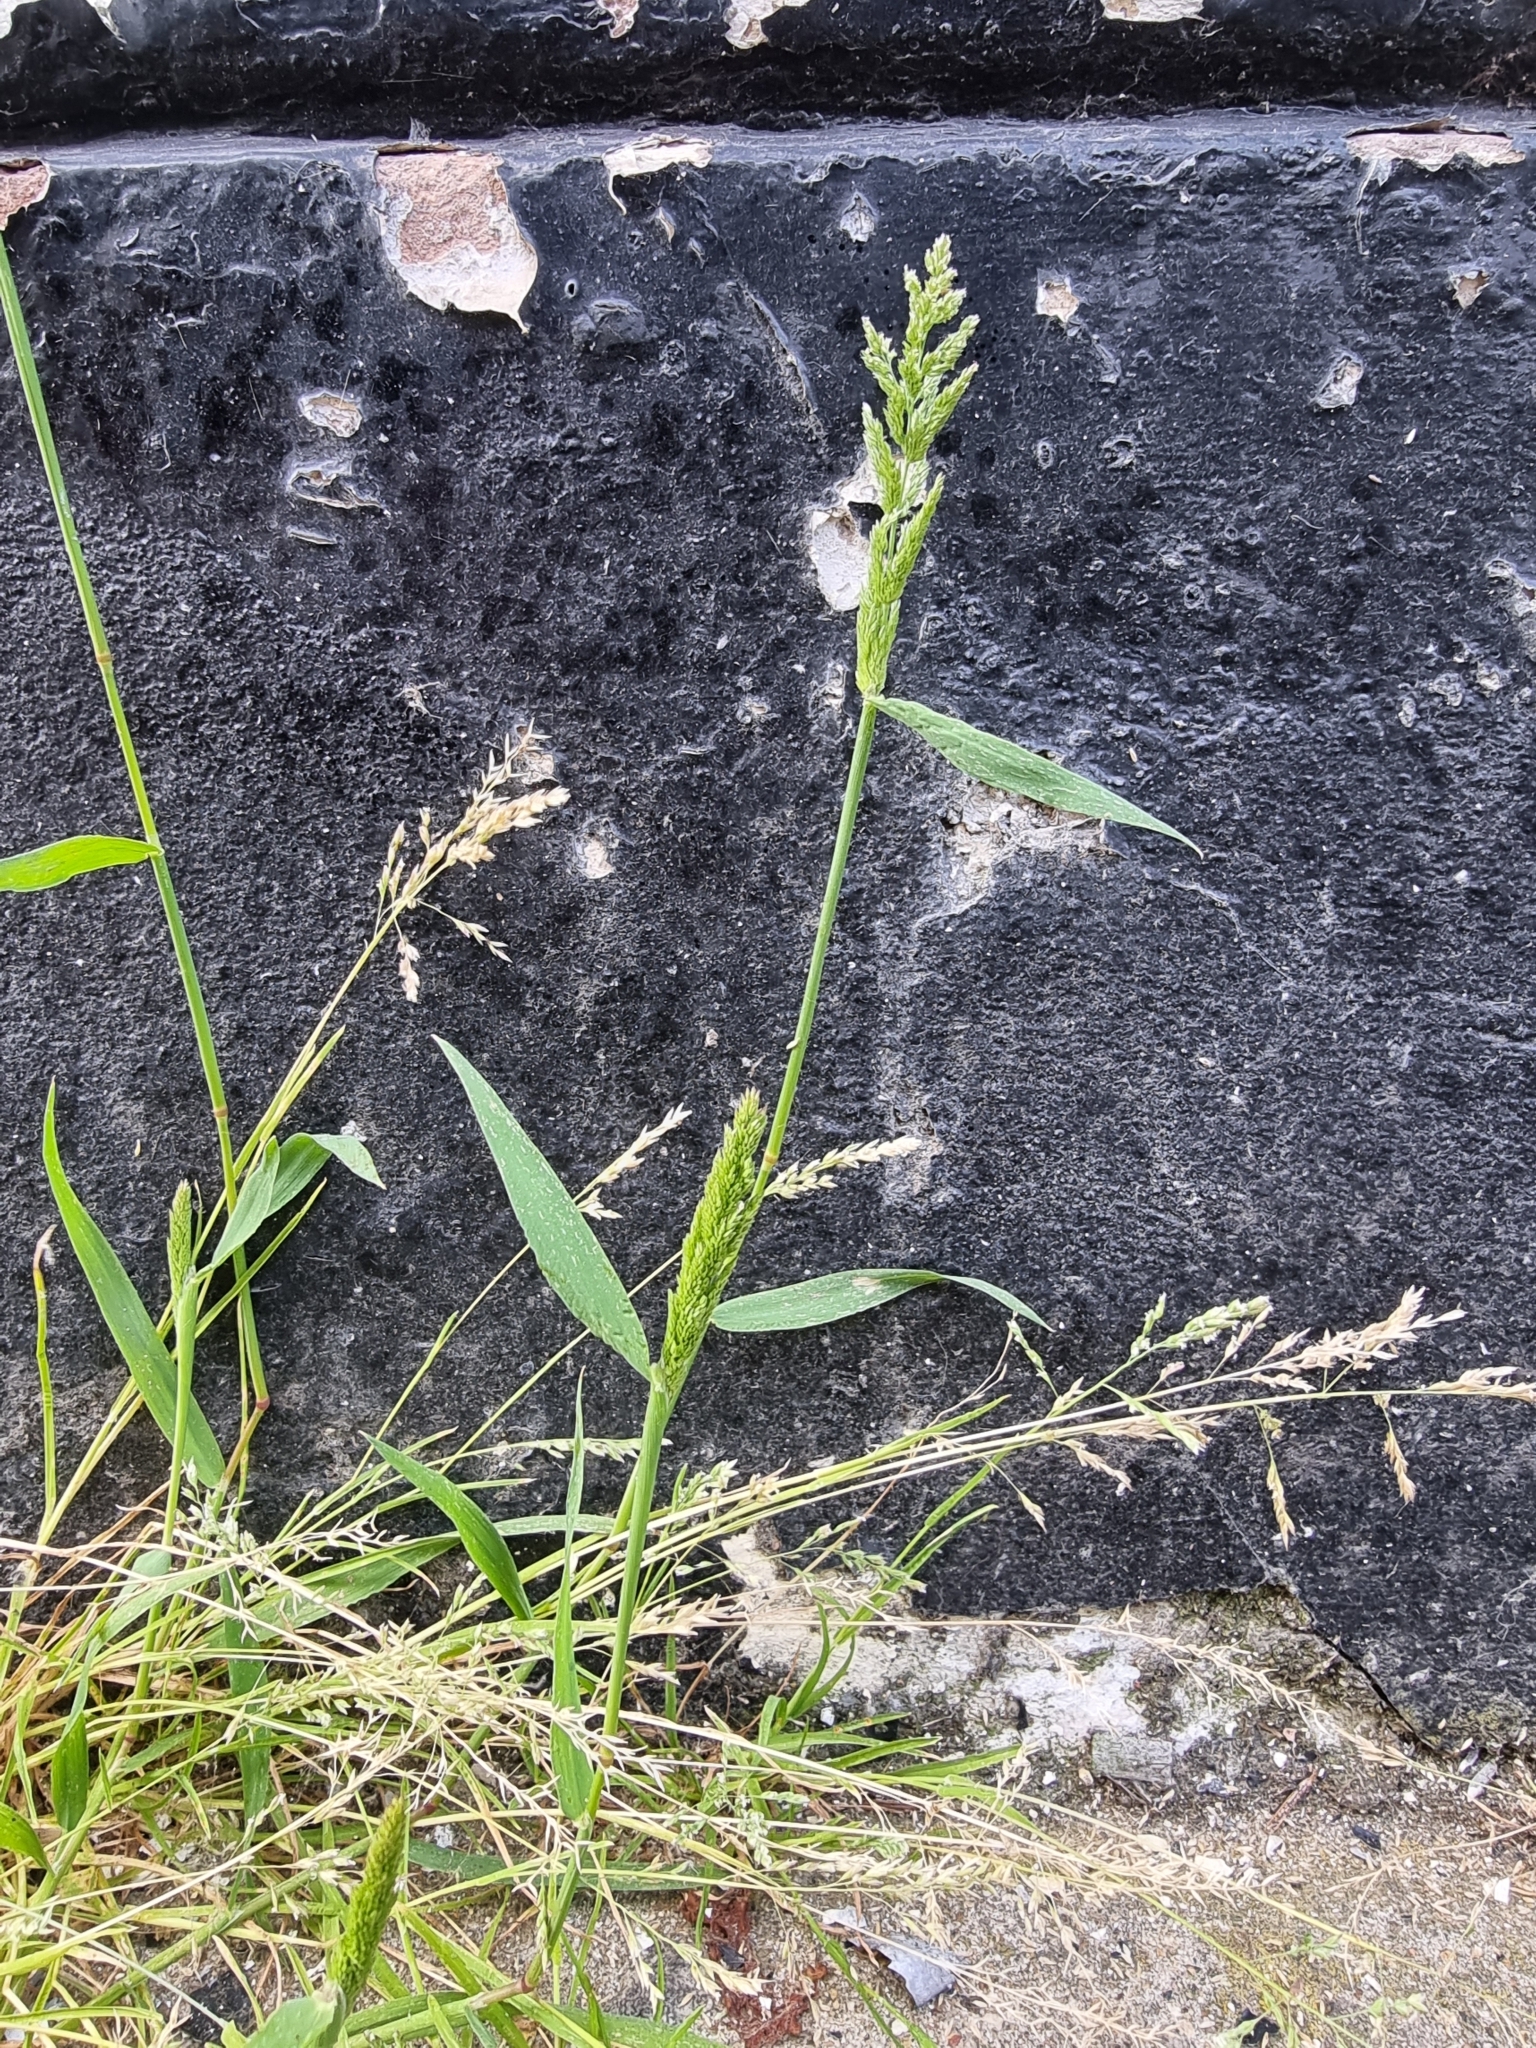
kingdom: Plantae
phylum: Tracheophyta
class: Liliopsida
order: Poales
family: Poaceae
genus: Polypogon
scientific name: Polypogon viridis
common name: Water bent
